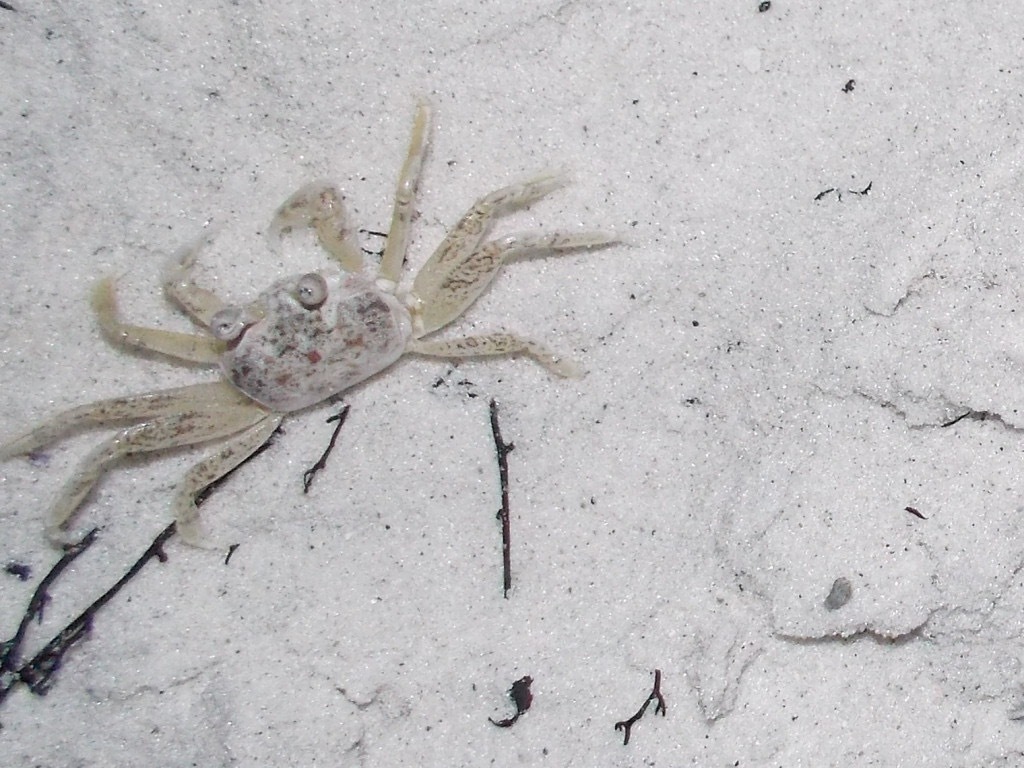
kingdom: Animalia
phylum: Arthropoda
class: Malacostraca
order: Decapoda
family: Ocypodidae
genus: Ocypode
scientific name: Ocypode quadrata
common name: Ghost crab
